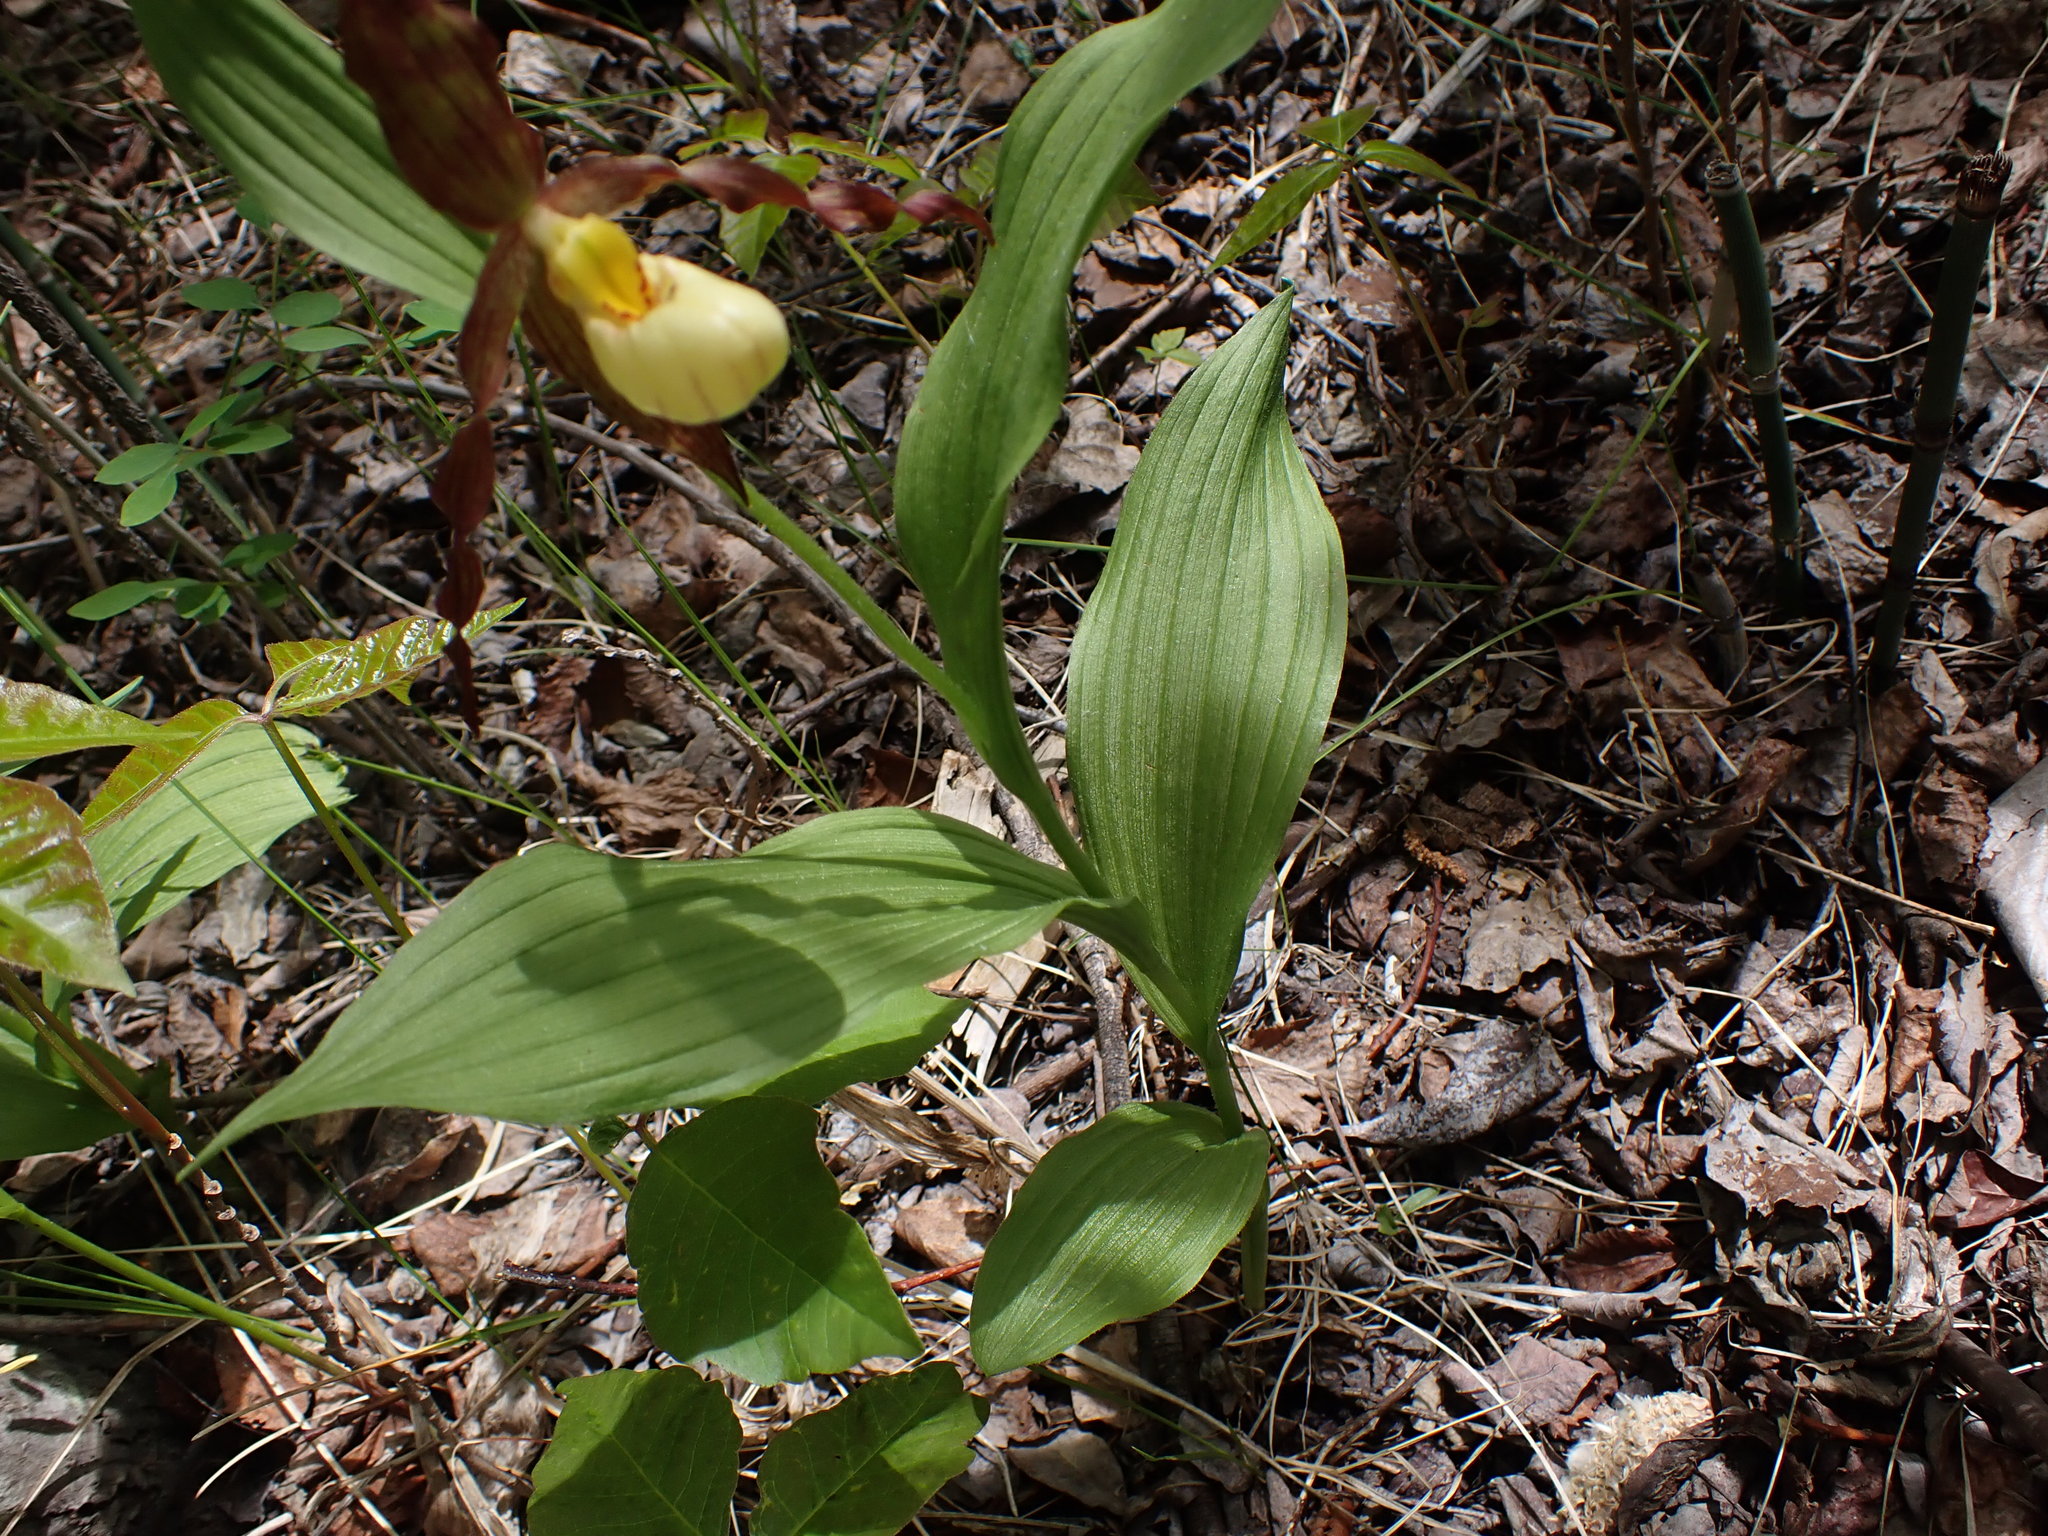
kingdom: Plantae
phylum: Tracheophyta
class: Liliopsida
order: Asparagales
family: Orchidaceae
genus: Cypripedium
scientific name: Cypripedium columbianum
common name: Columbia lady's-slipper
